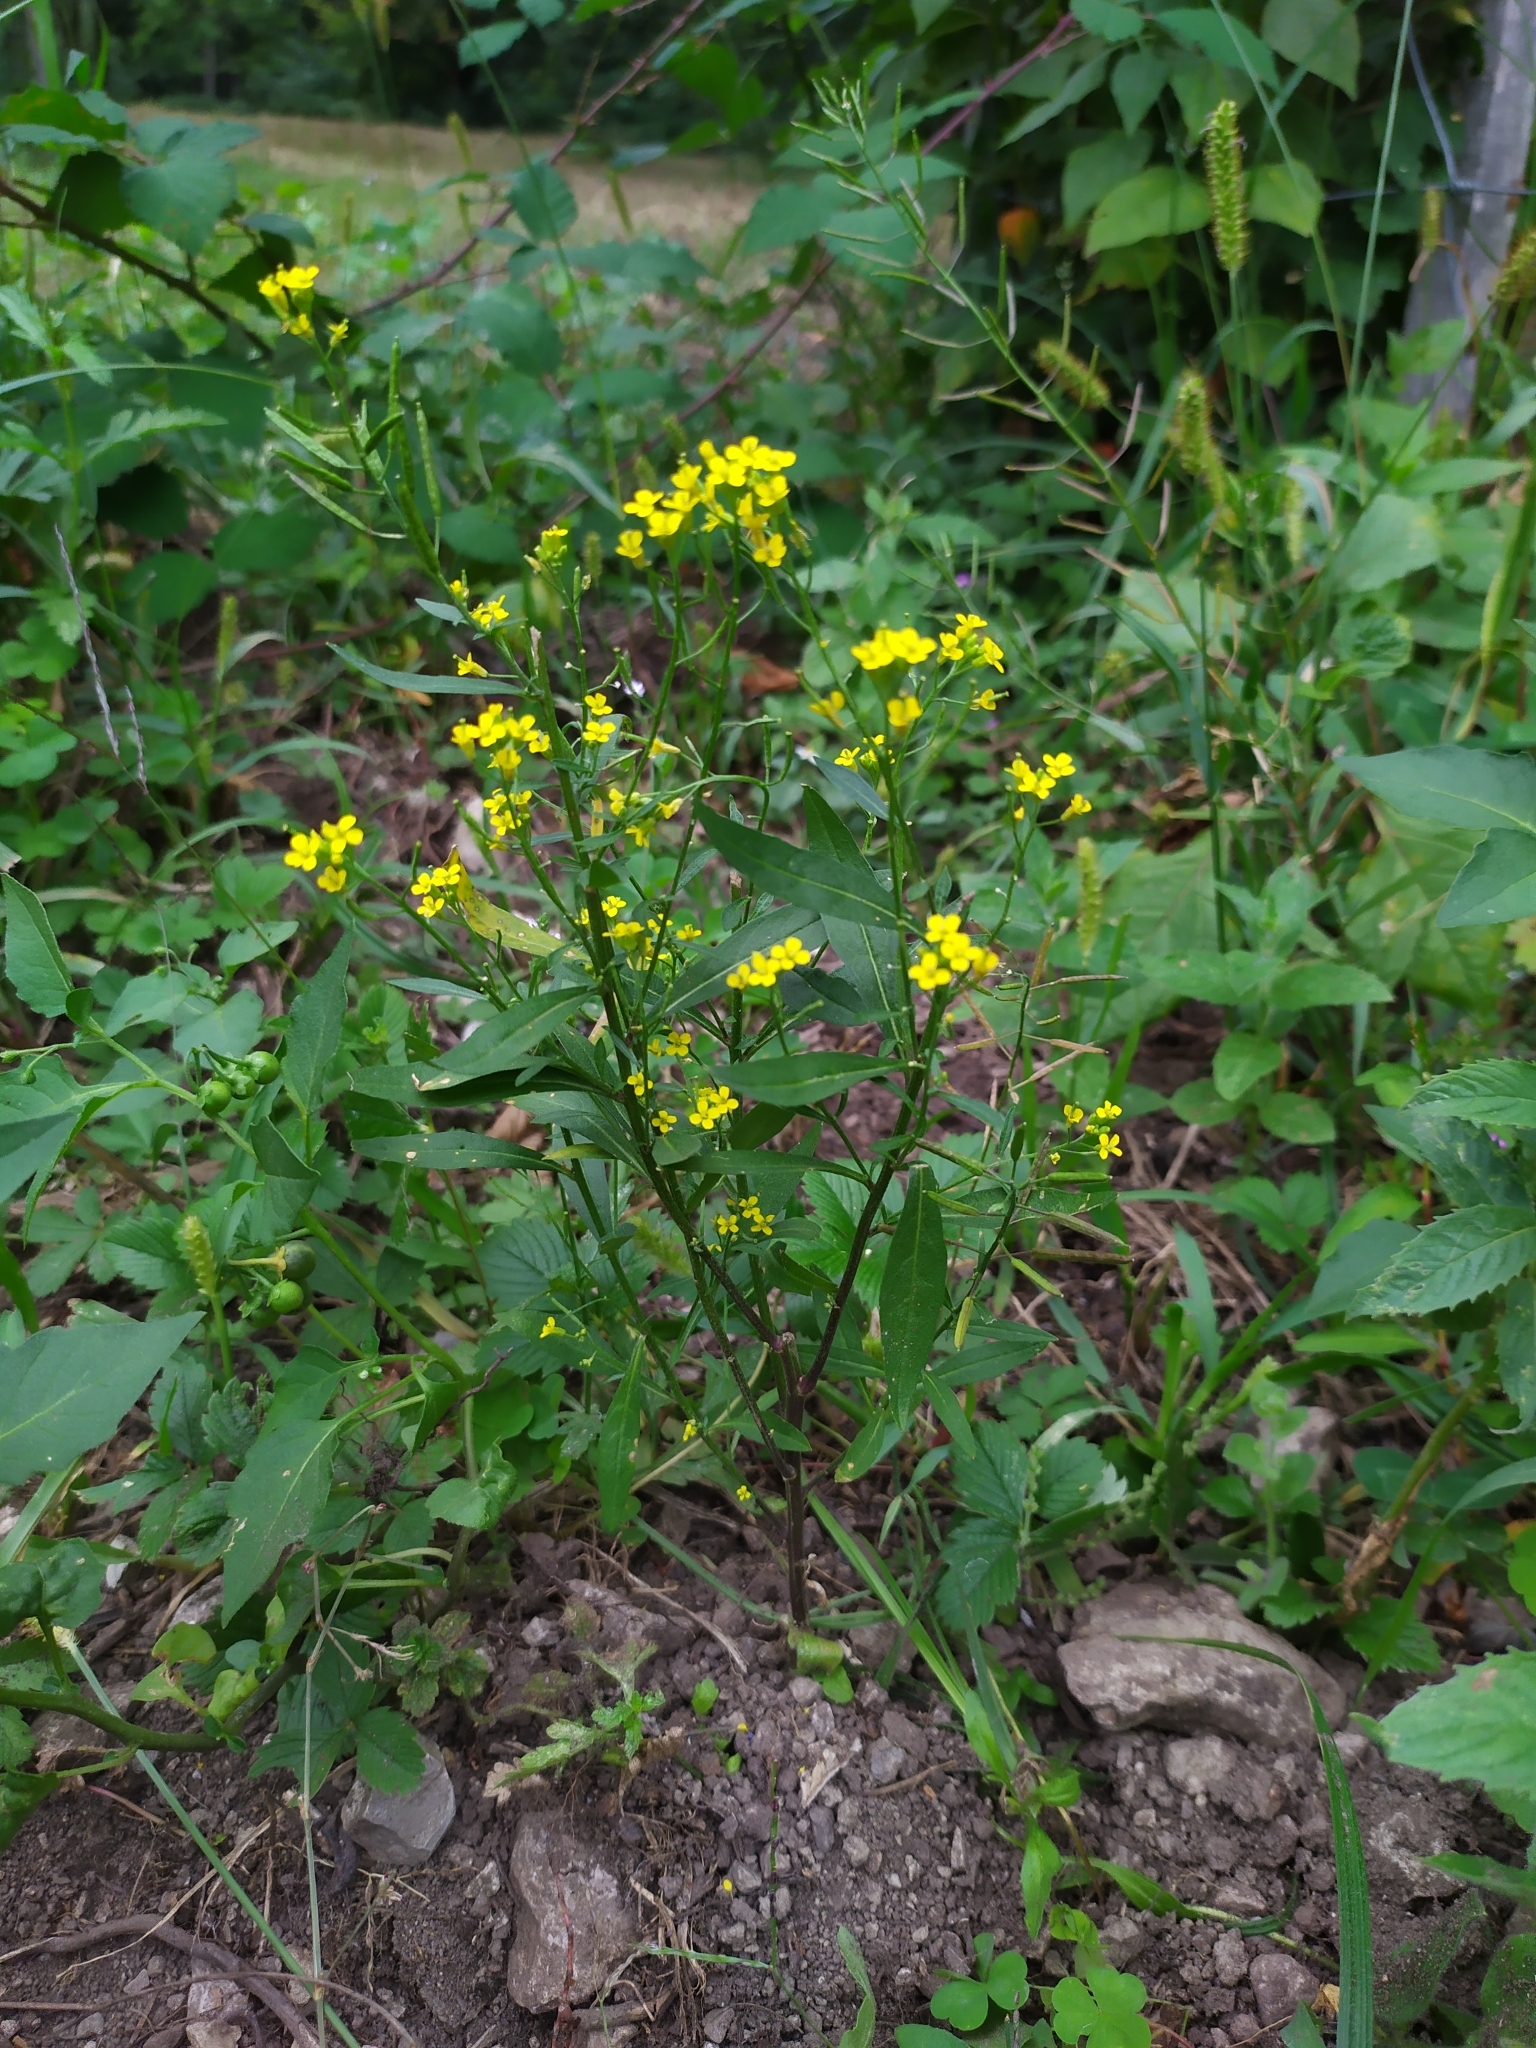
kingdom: Plantae
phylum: Tracheophyta
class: Magnoliopsida
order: Brassicales
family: Brassicaceae
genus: Erysimum
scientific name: Erysimum cheiranthoides
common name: Treacle mustard
